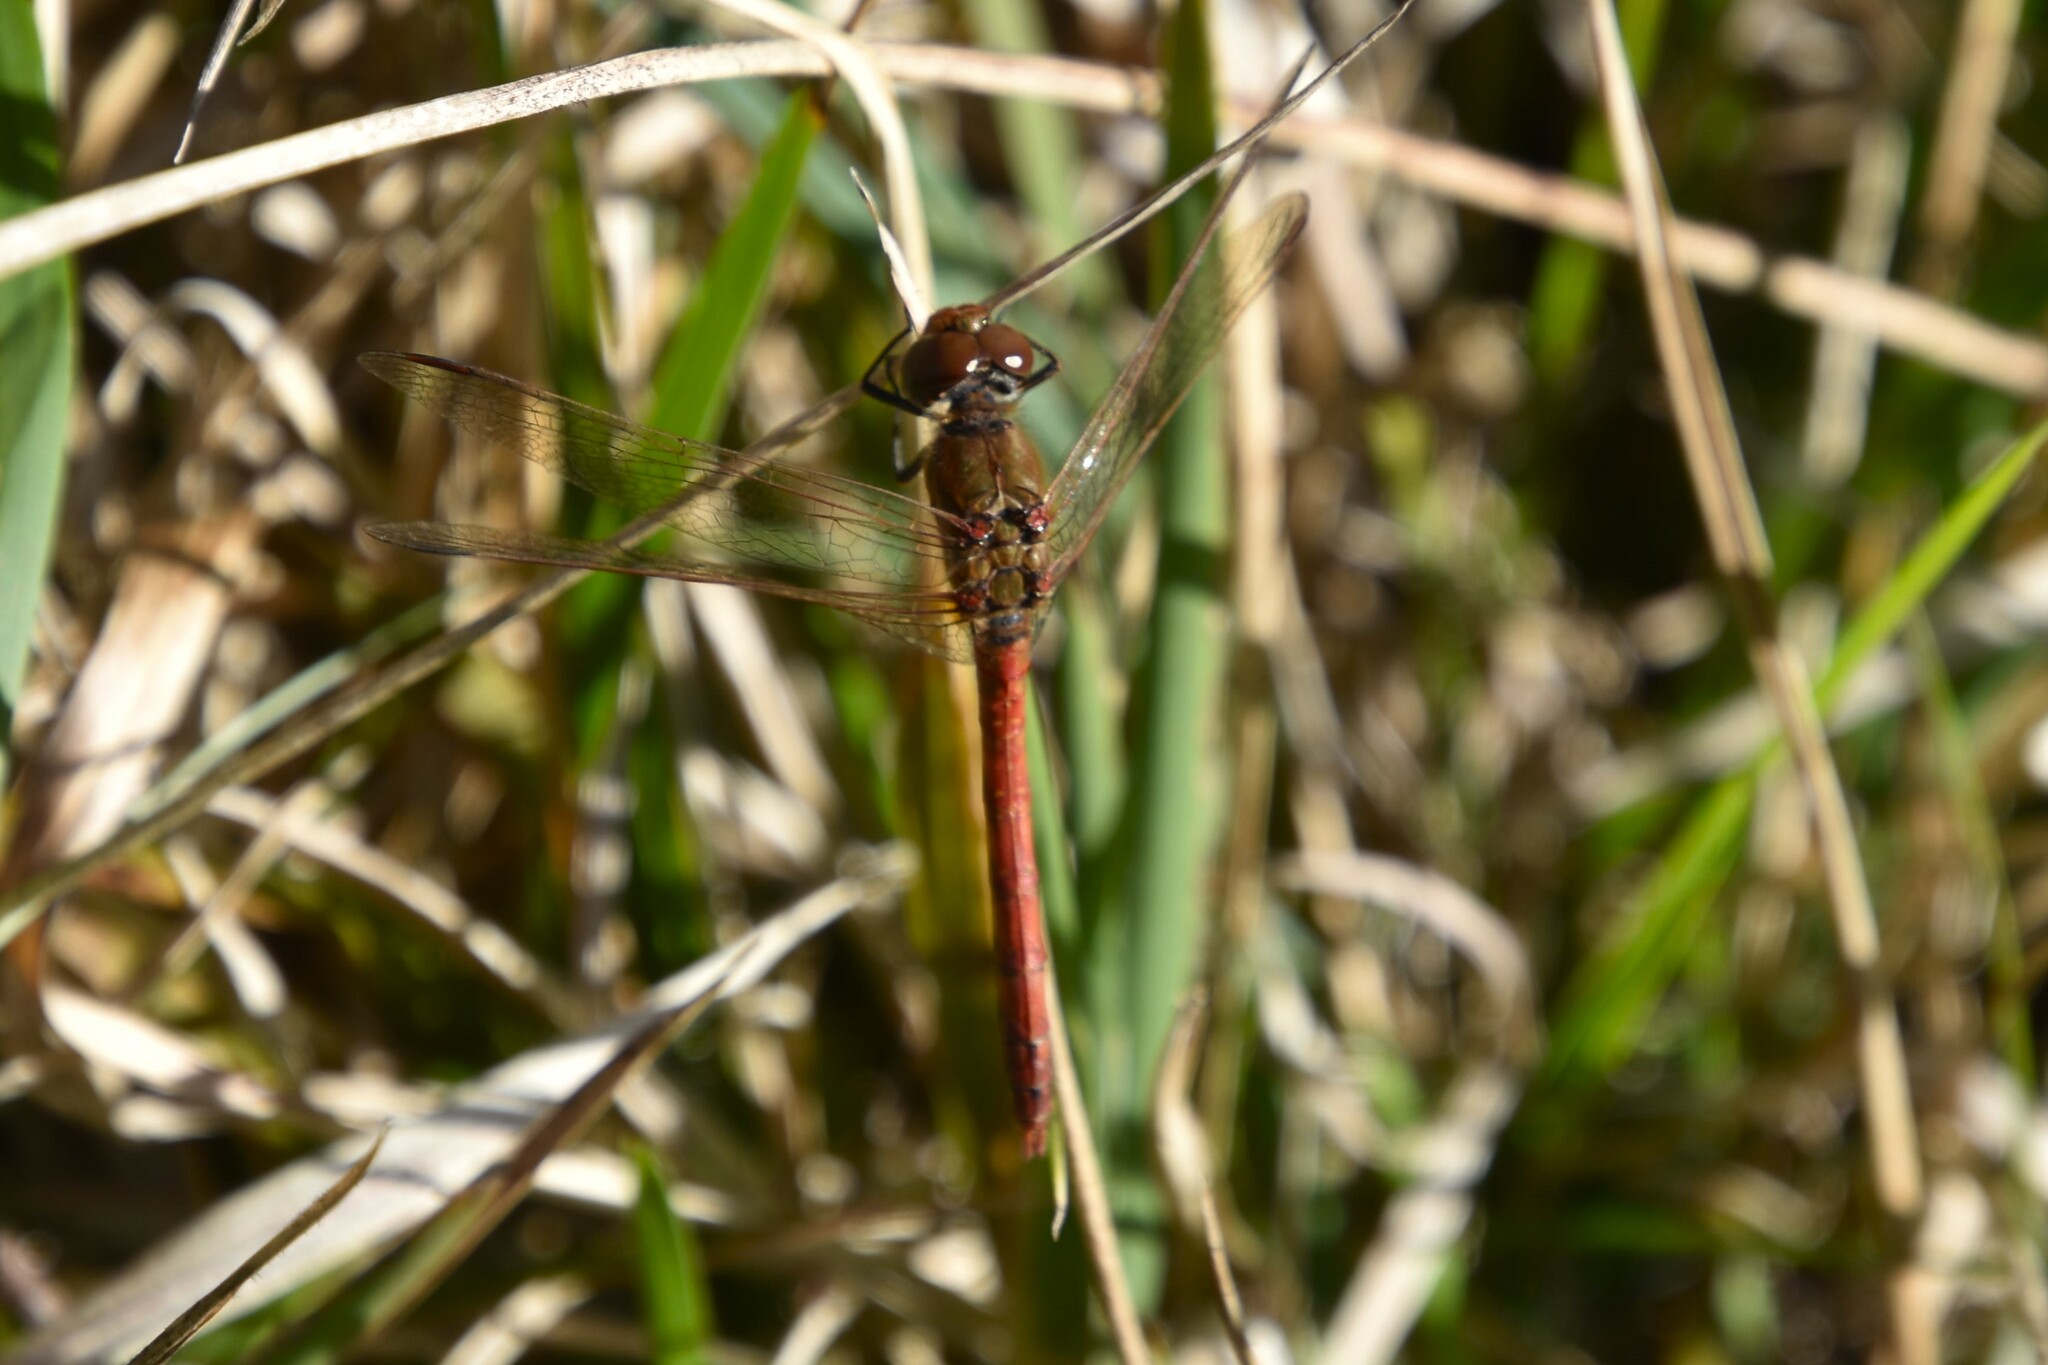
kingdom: Animalia
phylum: Arthropoda
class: Insecta
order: Odonata
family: Libellulidae
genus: Sympetrum
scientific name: Sympetrum striolatum
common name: Common darter
